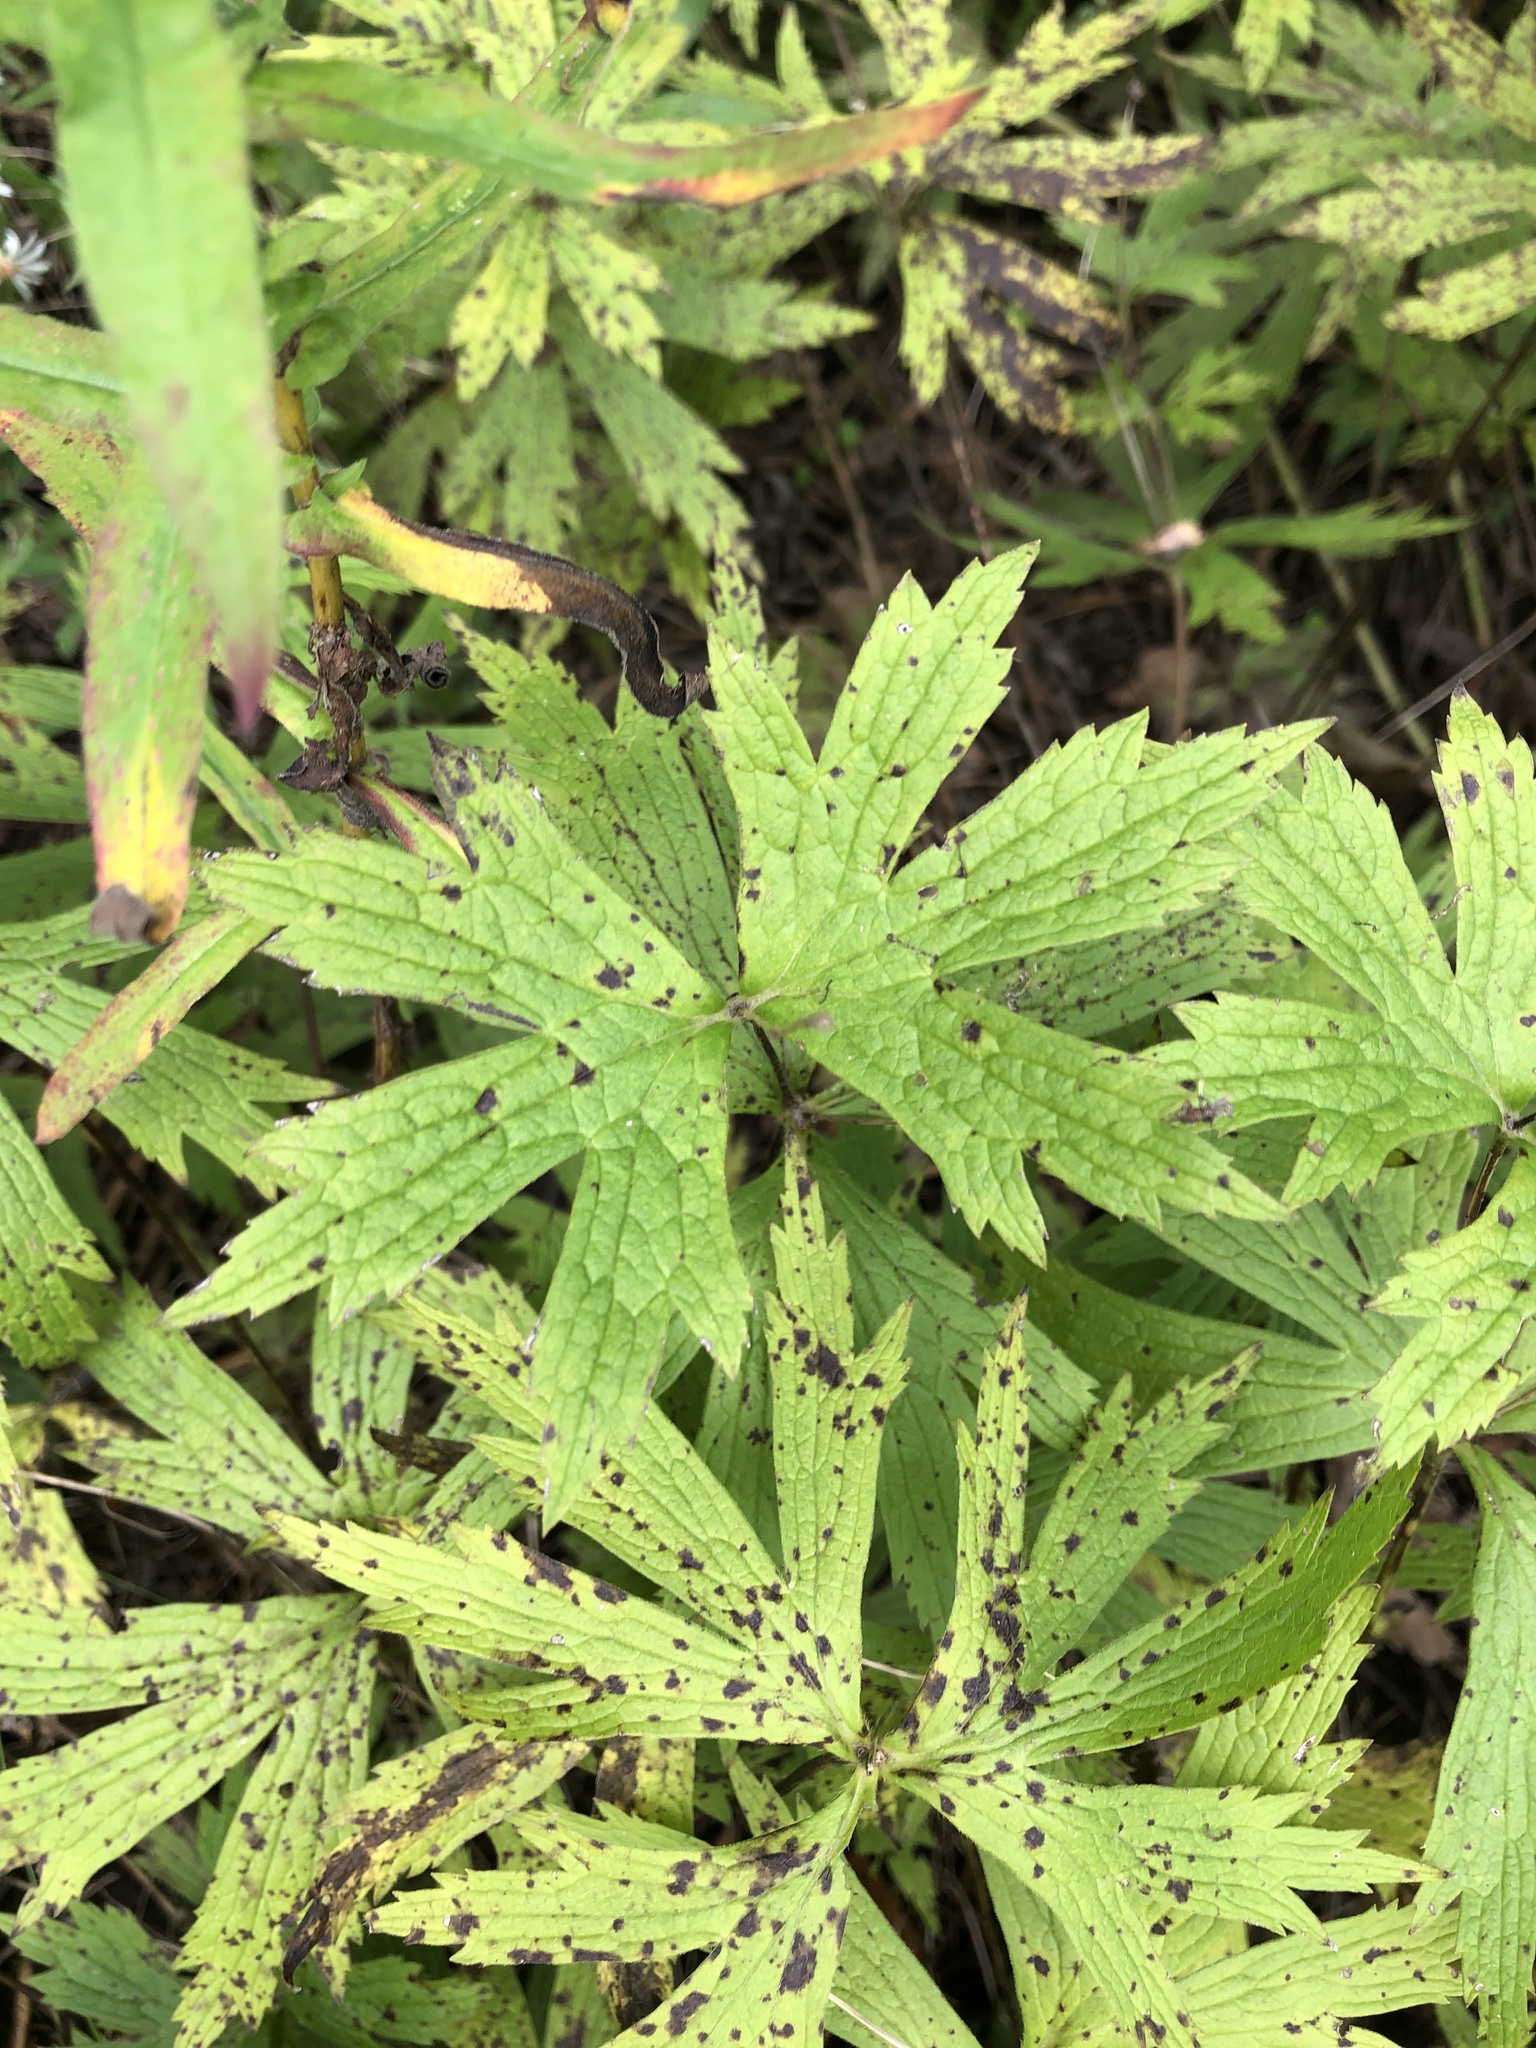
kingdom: Plantae
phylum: Tracheophyta
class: Magnoliopsida
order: Ranunculales
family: Ranunculaceae
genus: Anemonastrum
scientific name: Anemonastrum canadense
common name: Canada anemone
